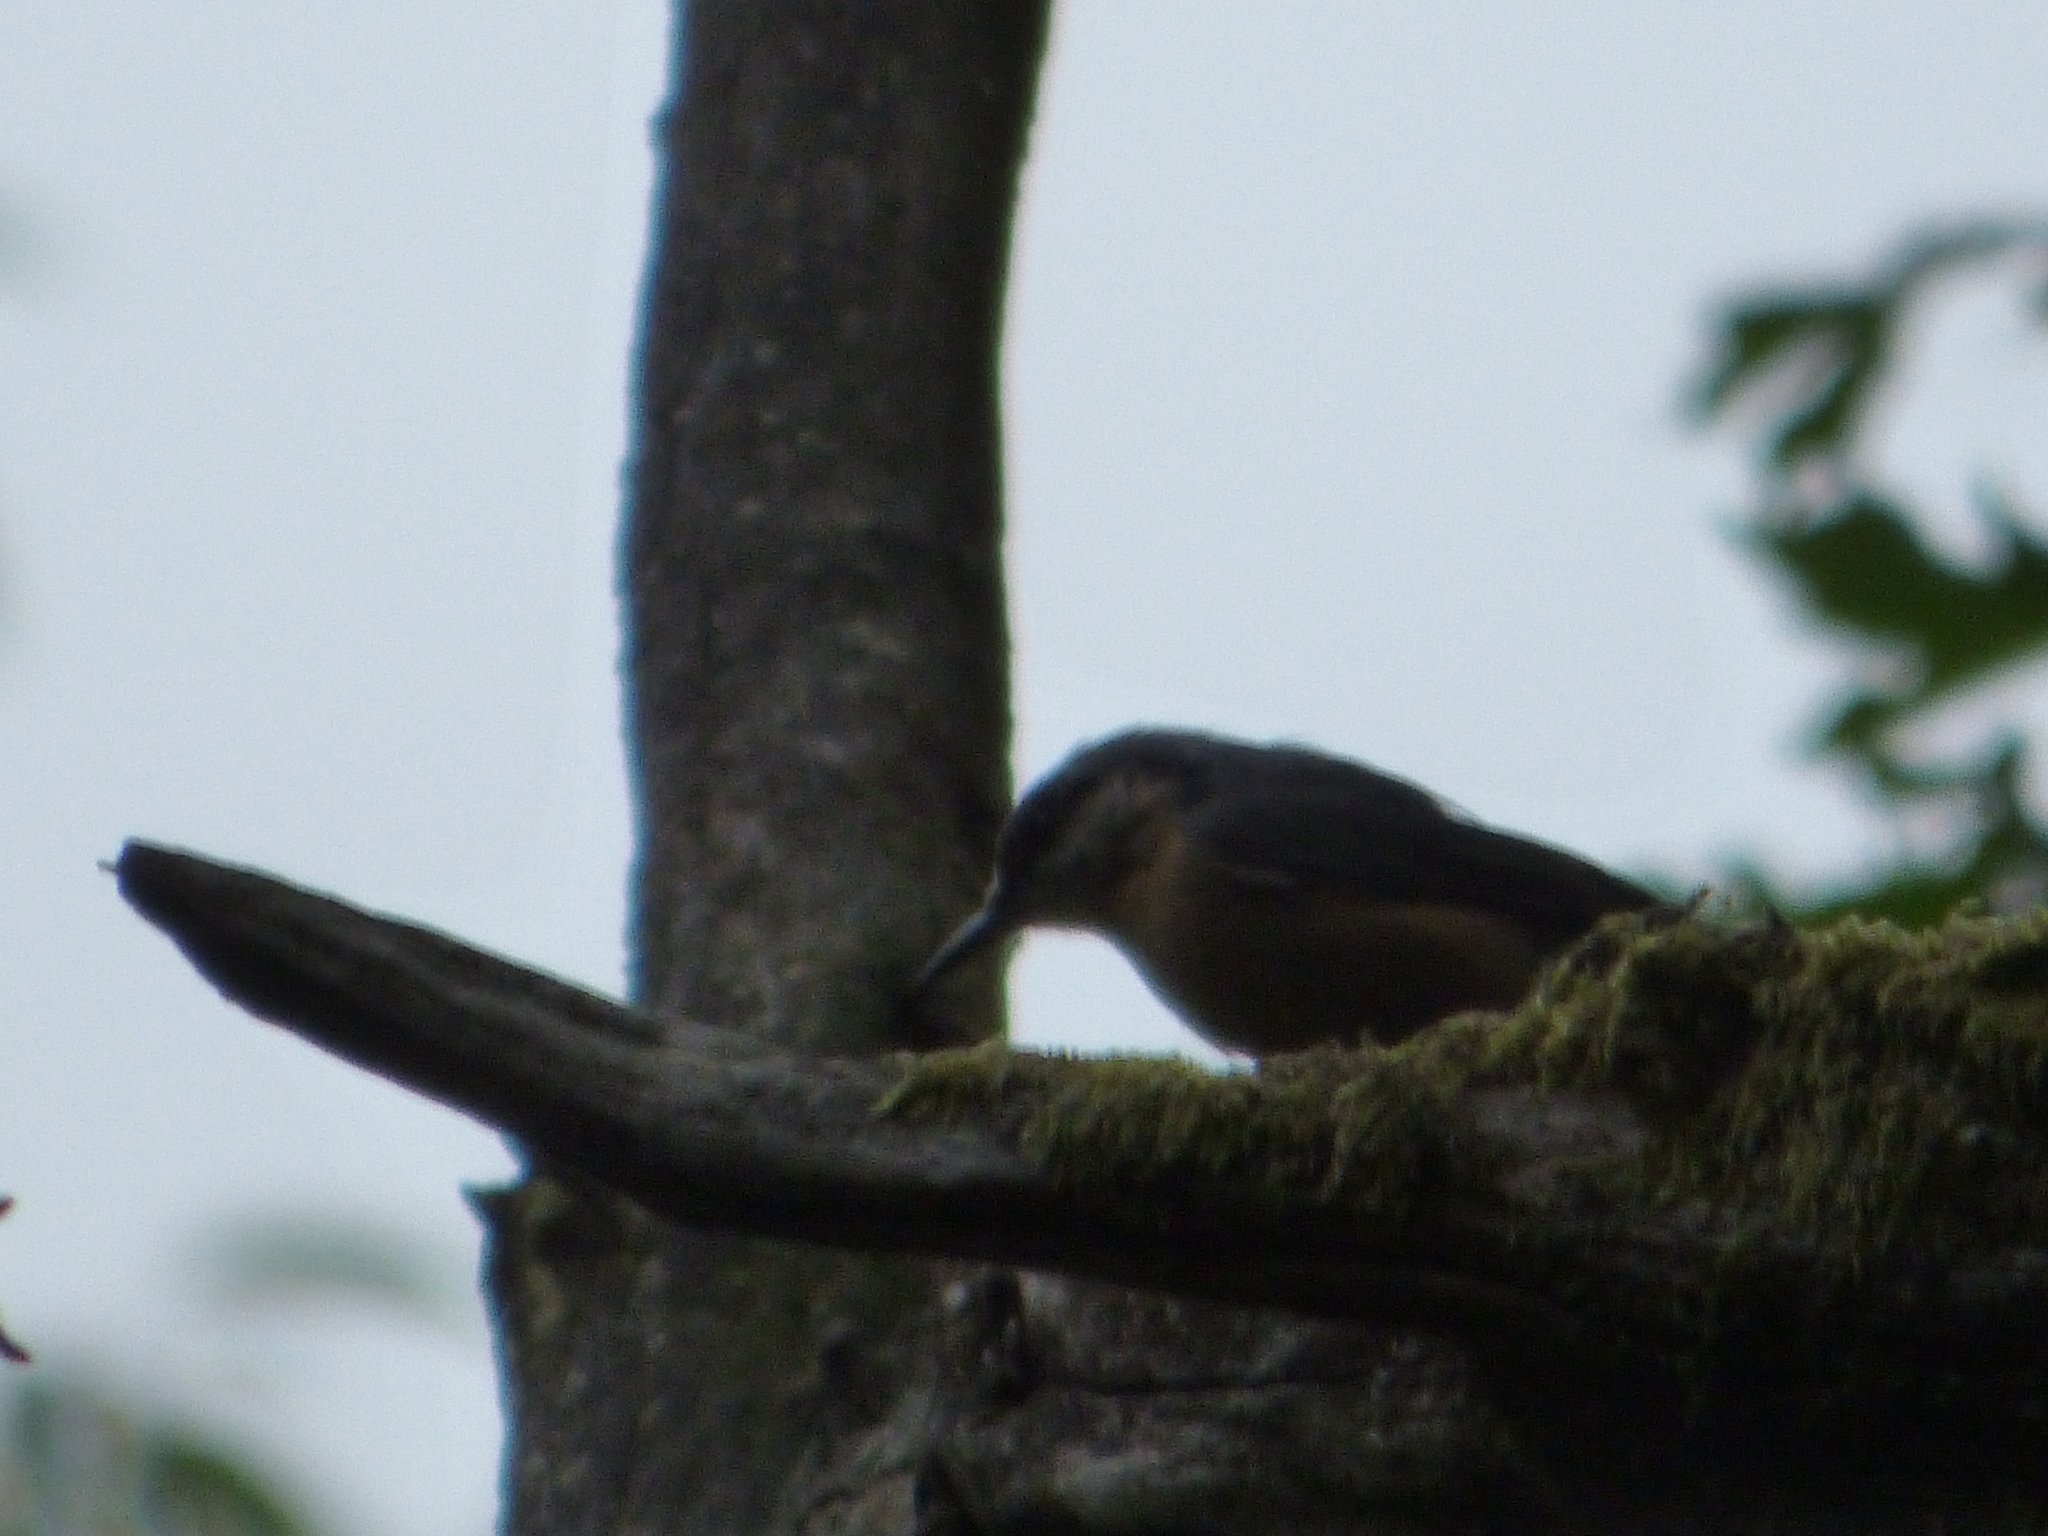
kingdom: Animalia
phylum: Chordata
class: Aves
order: Passeriformes
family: Sittidae
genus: Sitta
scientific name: Sitta europaea
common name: Eurasian nuthatch
